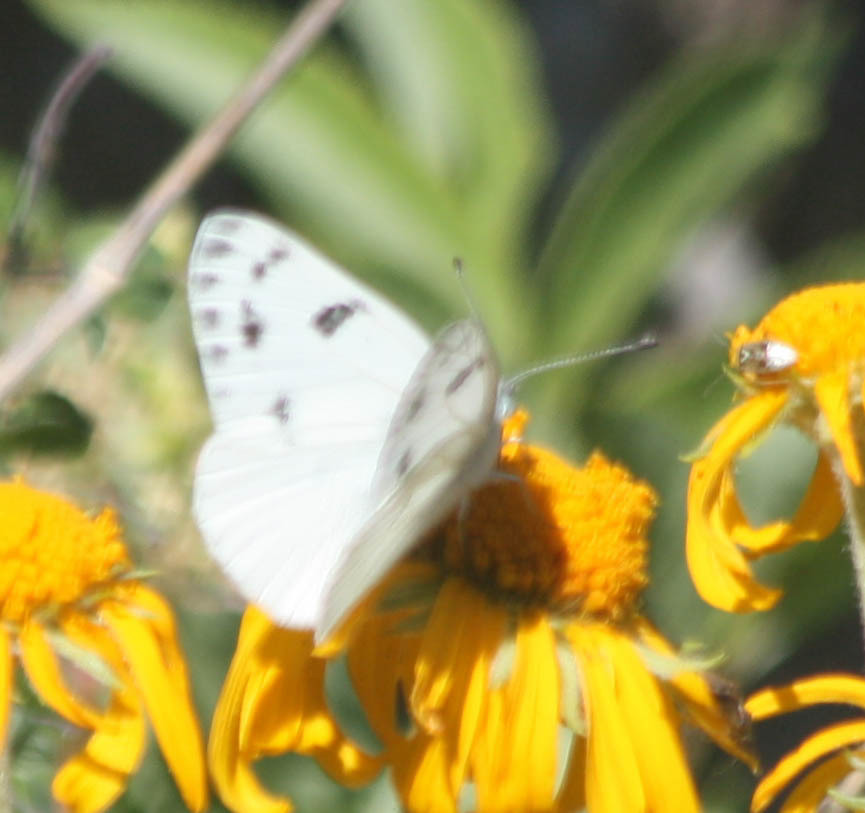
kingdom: Animalia
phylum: Arthropoda
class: Insecta
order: Lepidoptera
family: Pieridae
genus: Pontia
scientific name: Pontia protodice
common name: Checkered white
